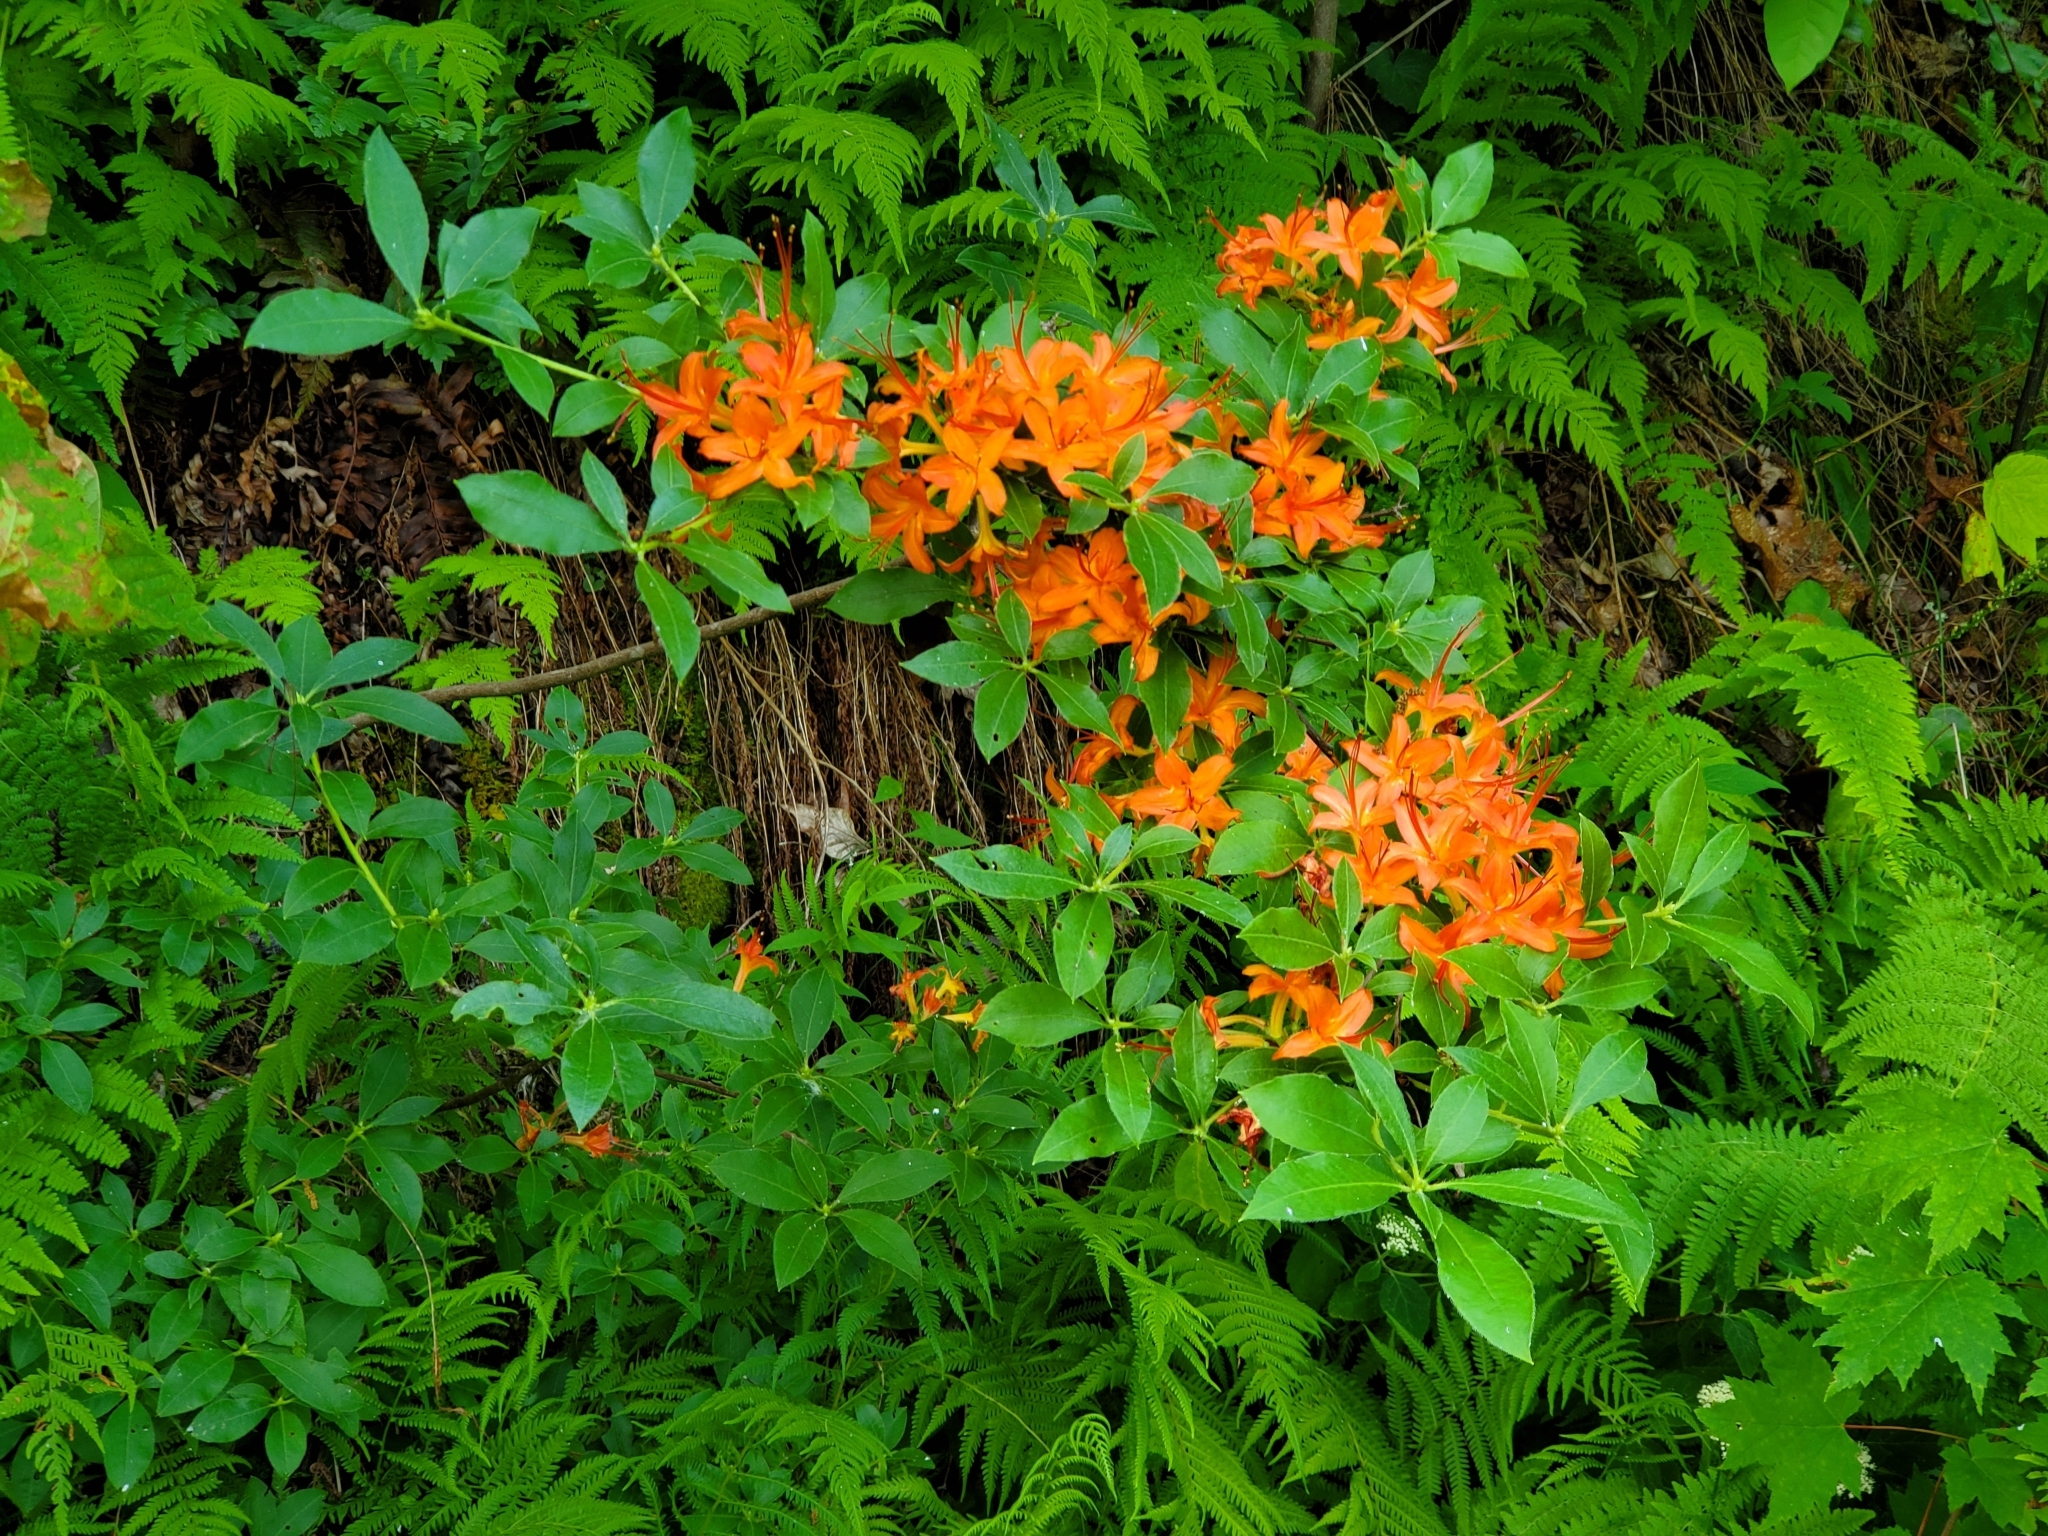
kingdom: Plantae
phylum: Tracheophyta
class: Magnoliopsida
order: Ericales
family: Ericaceae
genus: Rhododendron
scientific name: Rhododendron calendulaceum
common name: Flame azalea
